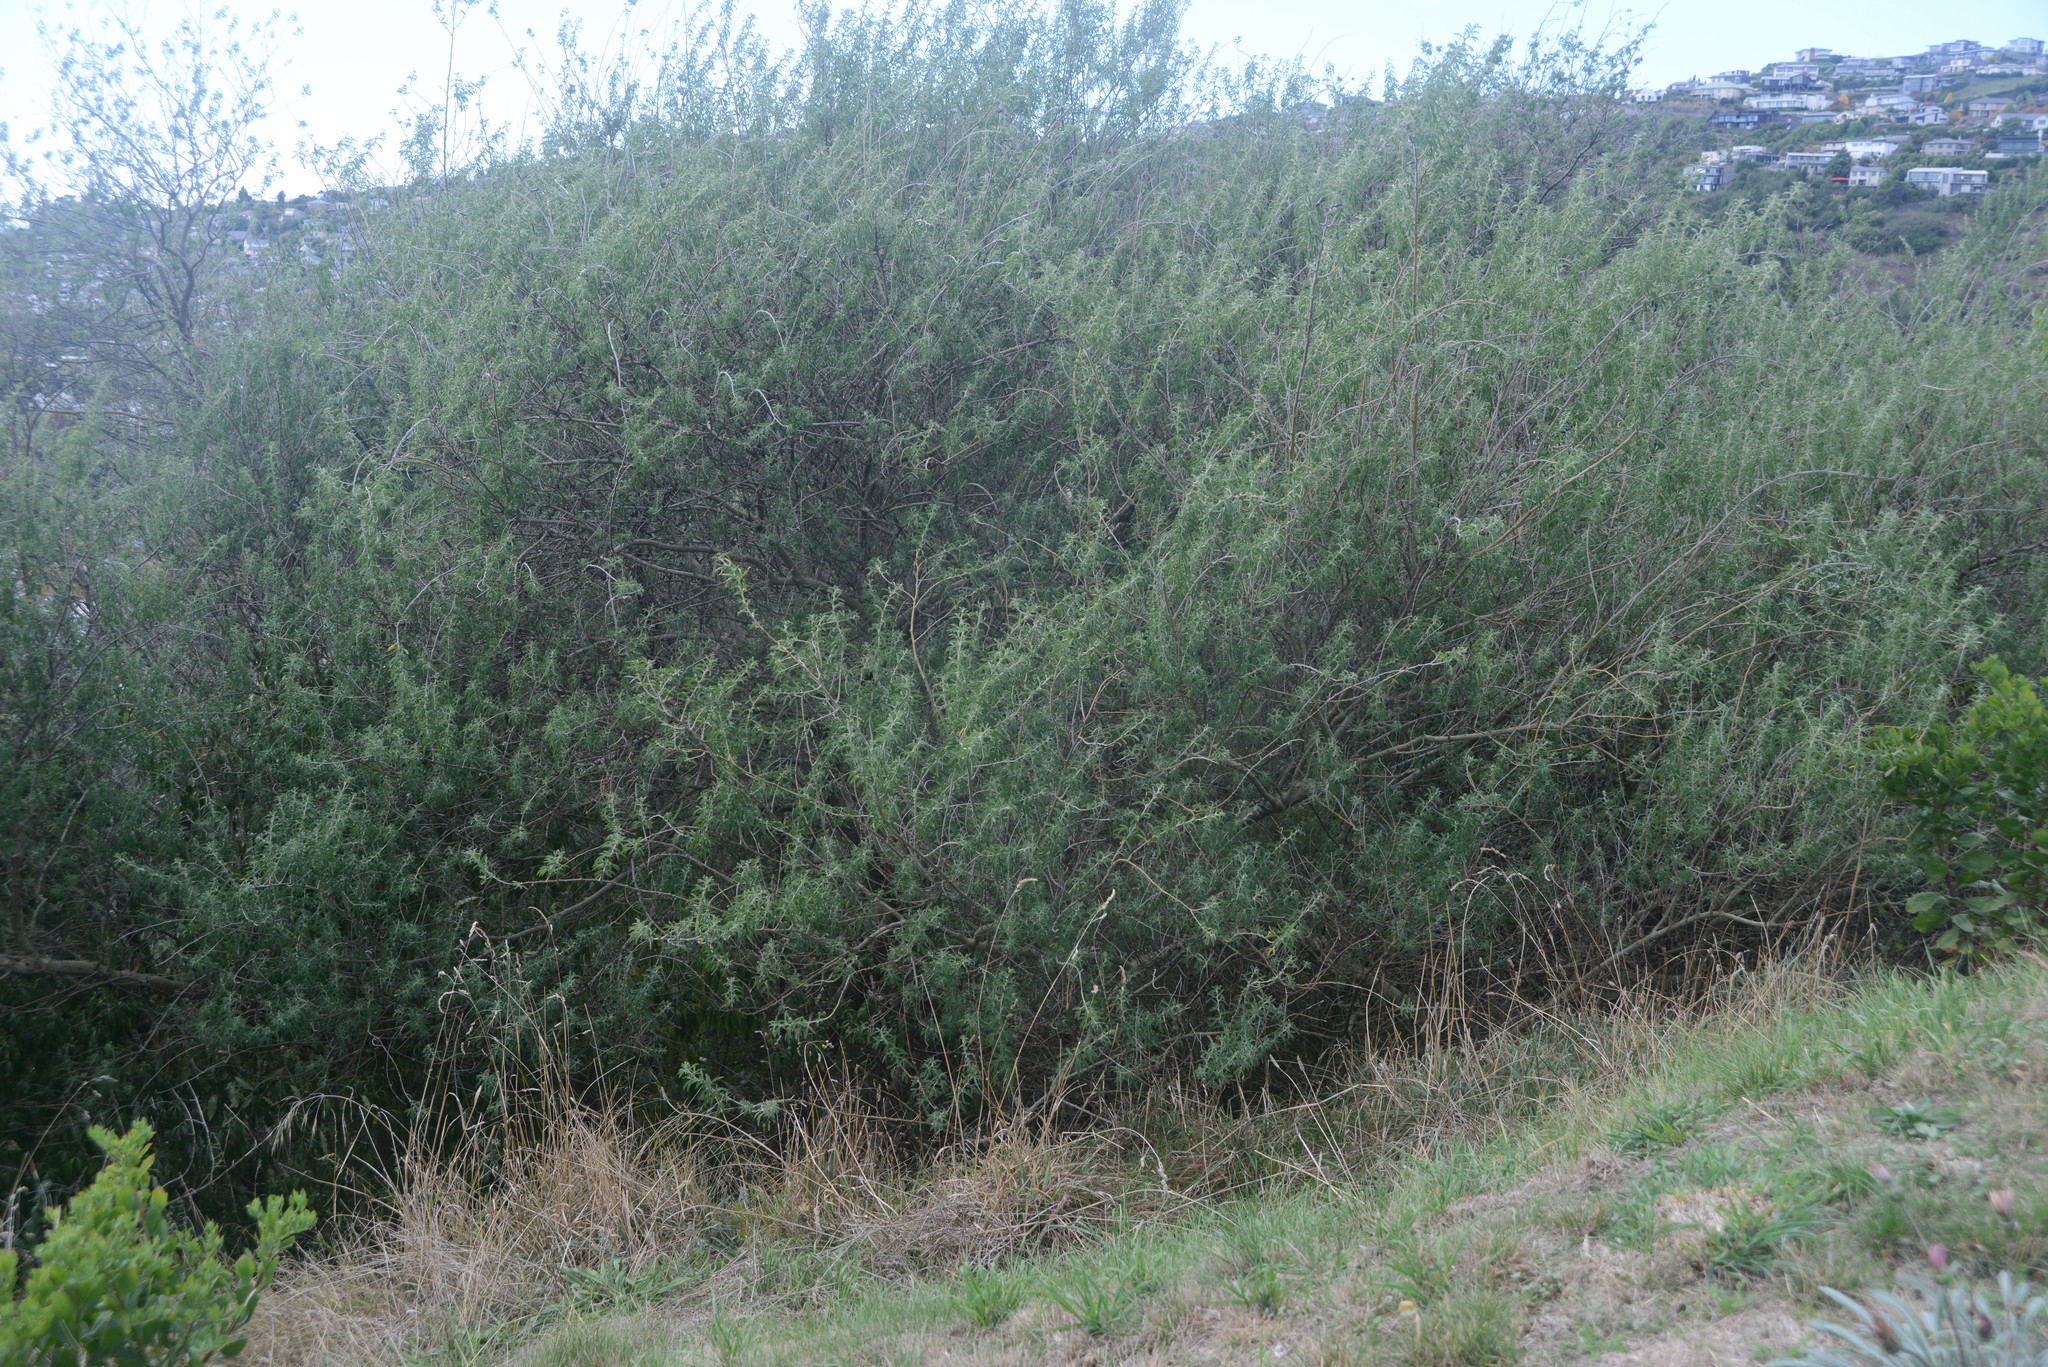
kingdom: Plantae
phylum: Tracheophyta
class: Magnoliopsida
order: Fabales
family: Fabaceae
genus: Chamaecytisus
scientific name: Chamaecytisus prolifer
